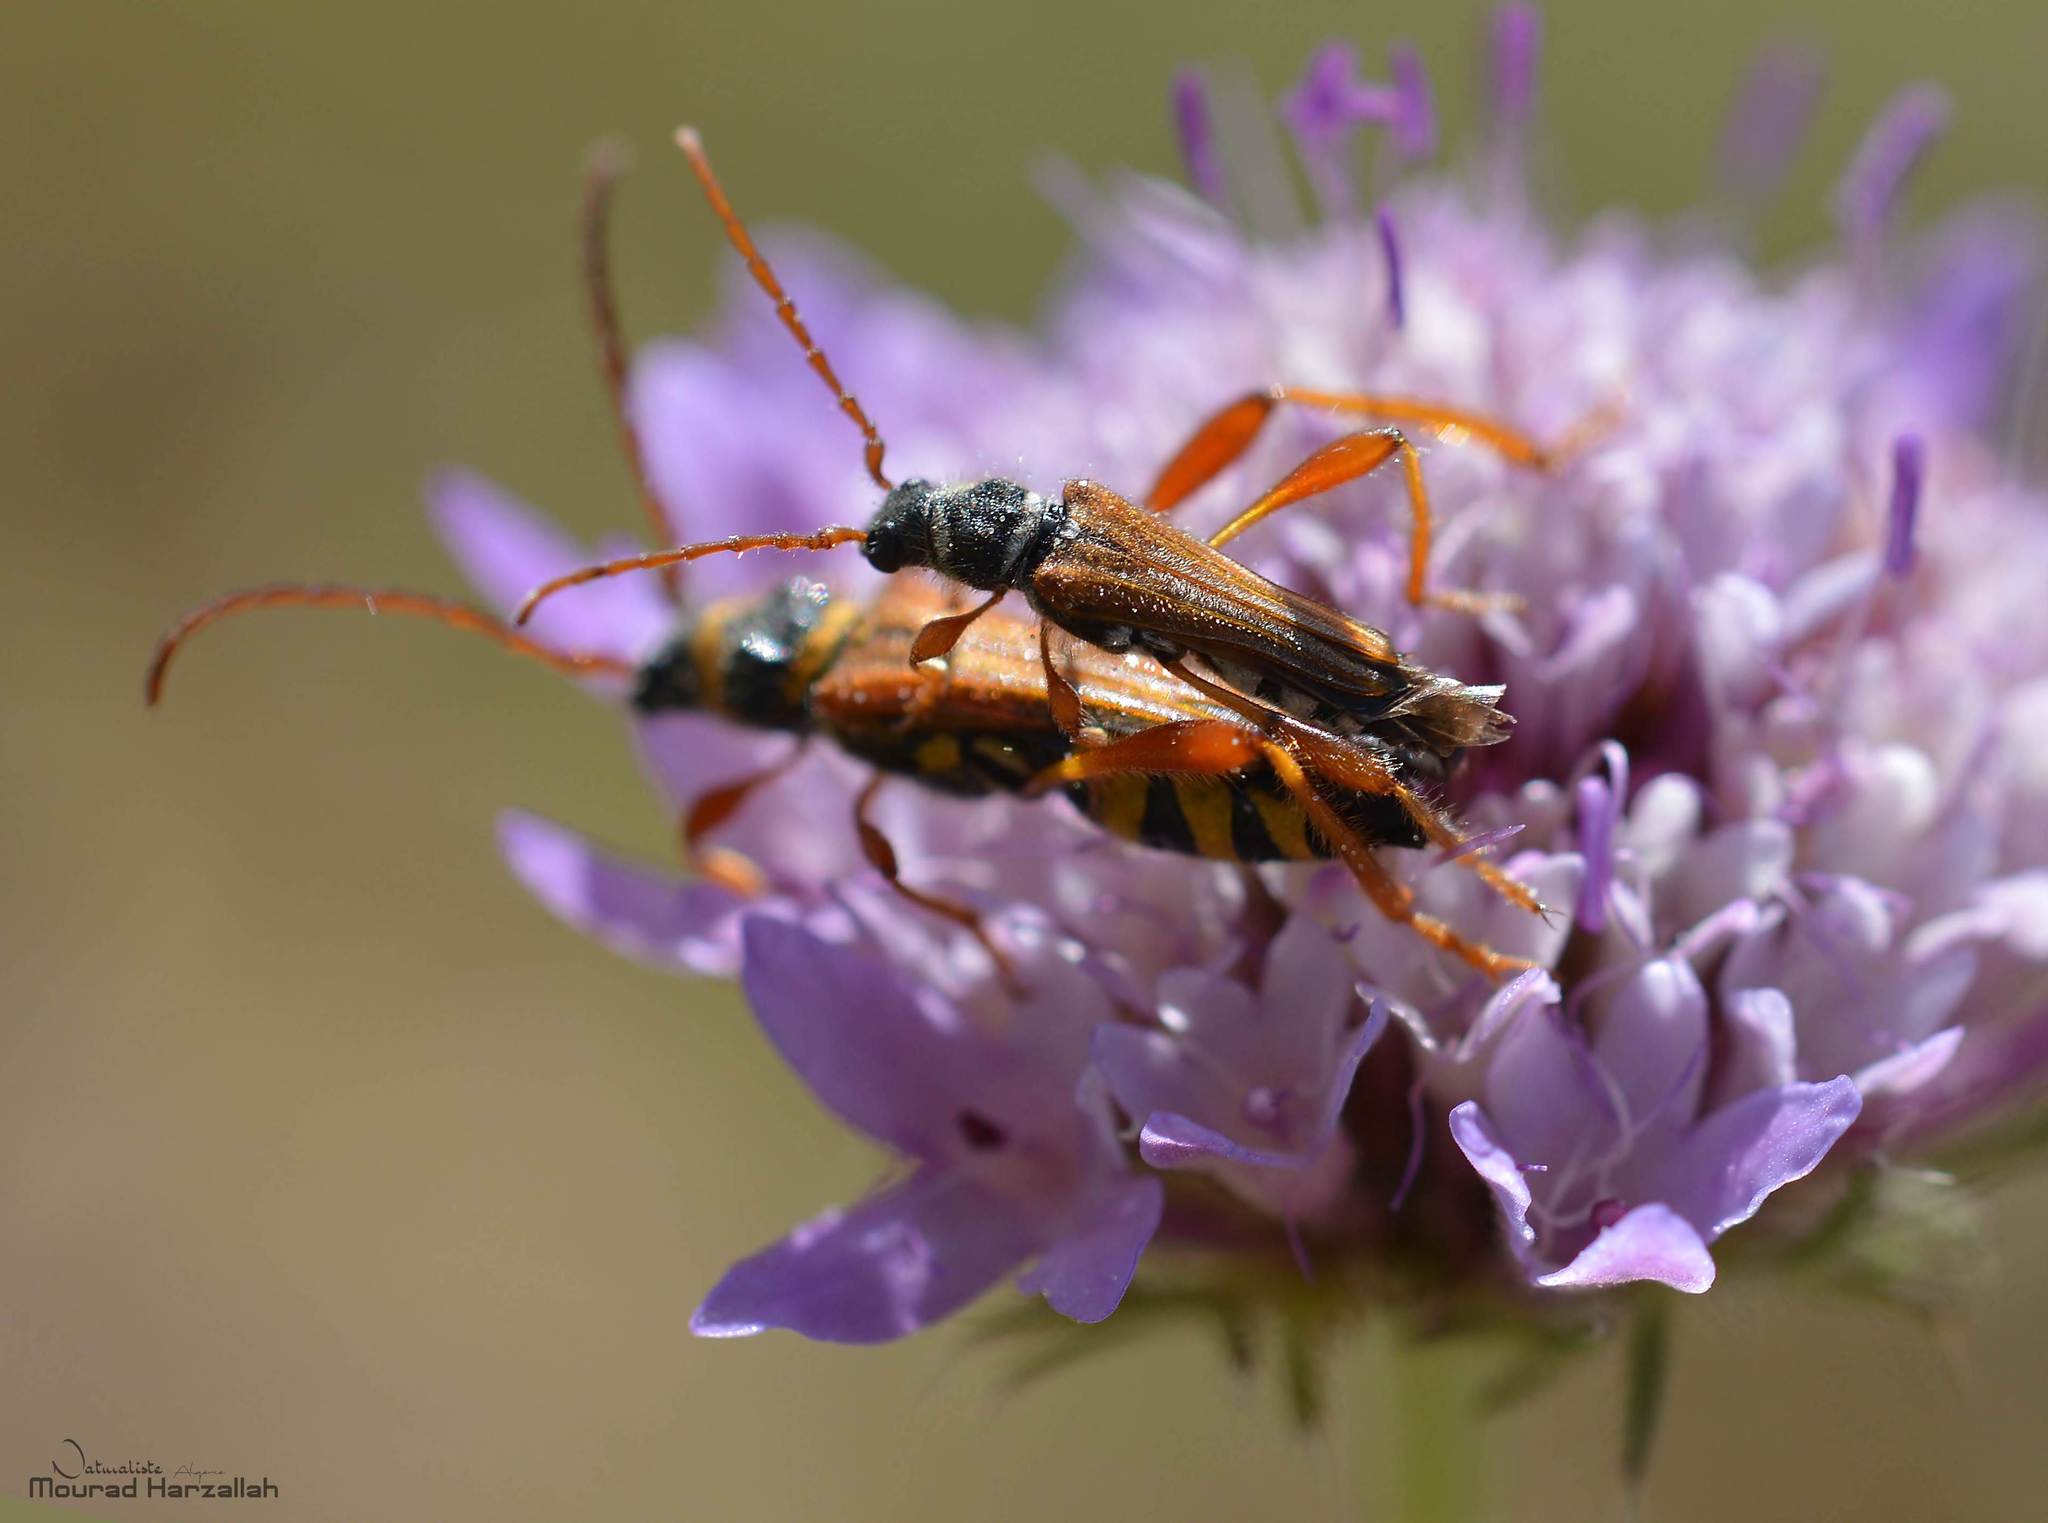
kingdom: Animalia
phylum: Arthropoda
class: Insecta
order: Coleoptera
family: Cerambycidae
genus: Stenopterus
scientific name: Stenopterus mauritanicus
